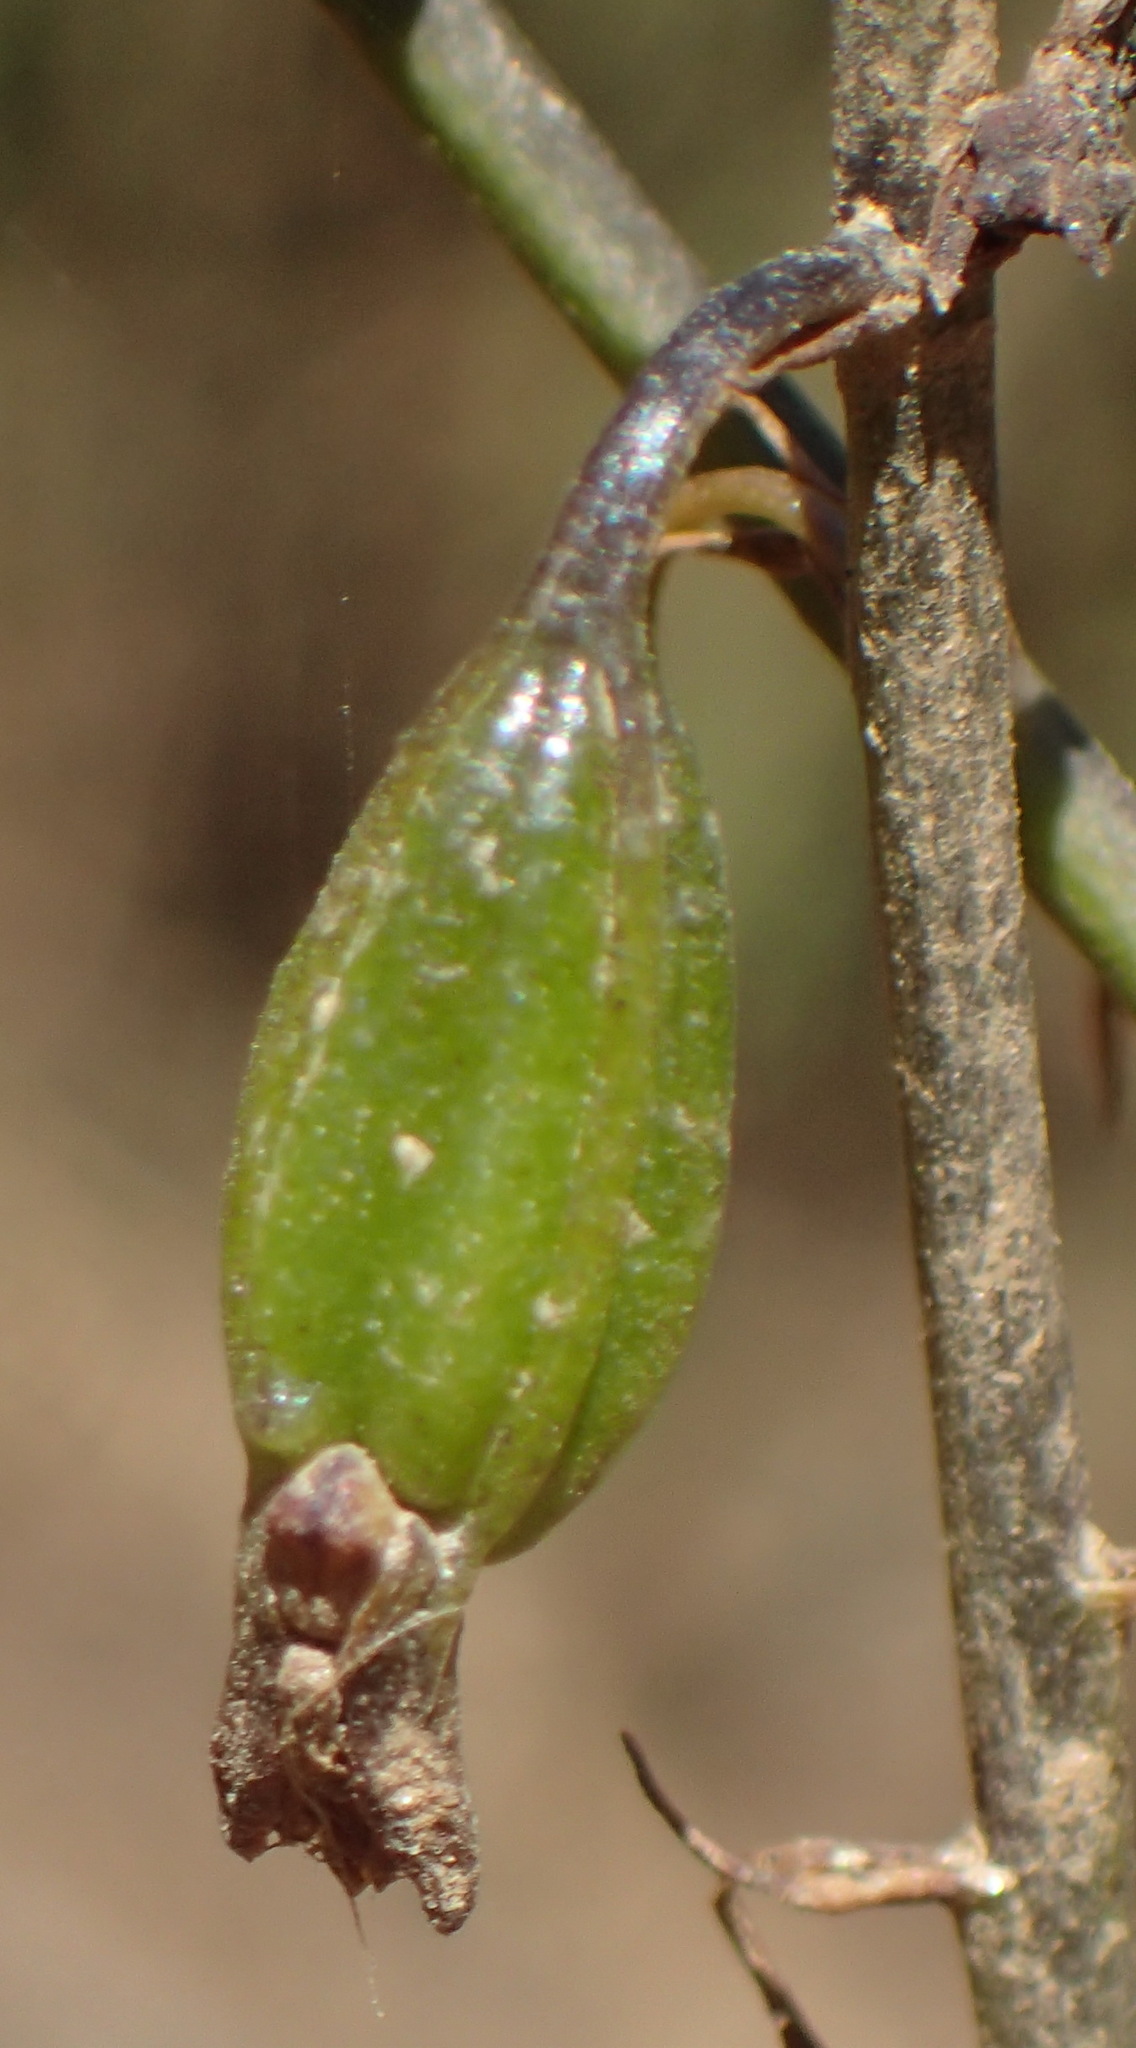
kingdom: Plantae
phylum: Tracheophyta
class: Liliopsida
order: Asparagales
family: Orchidaceae
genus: Eulophia
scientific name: Eulophia cochlearis
